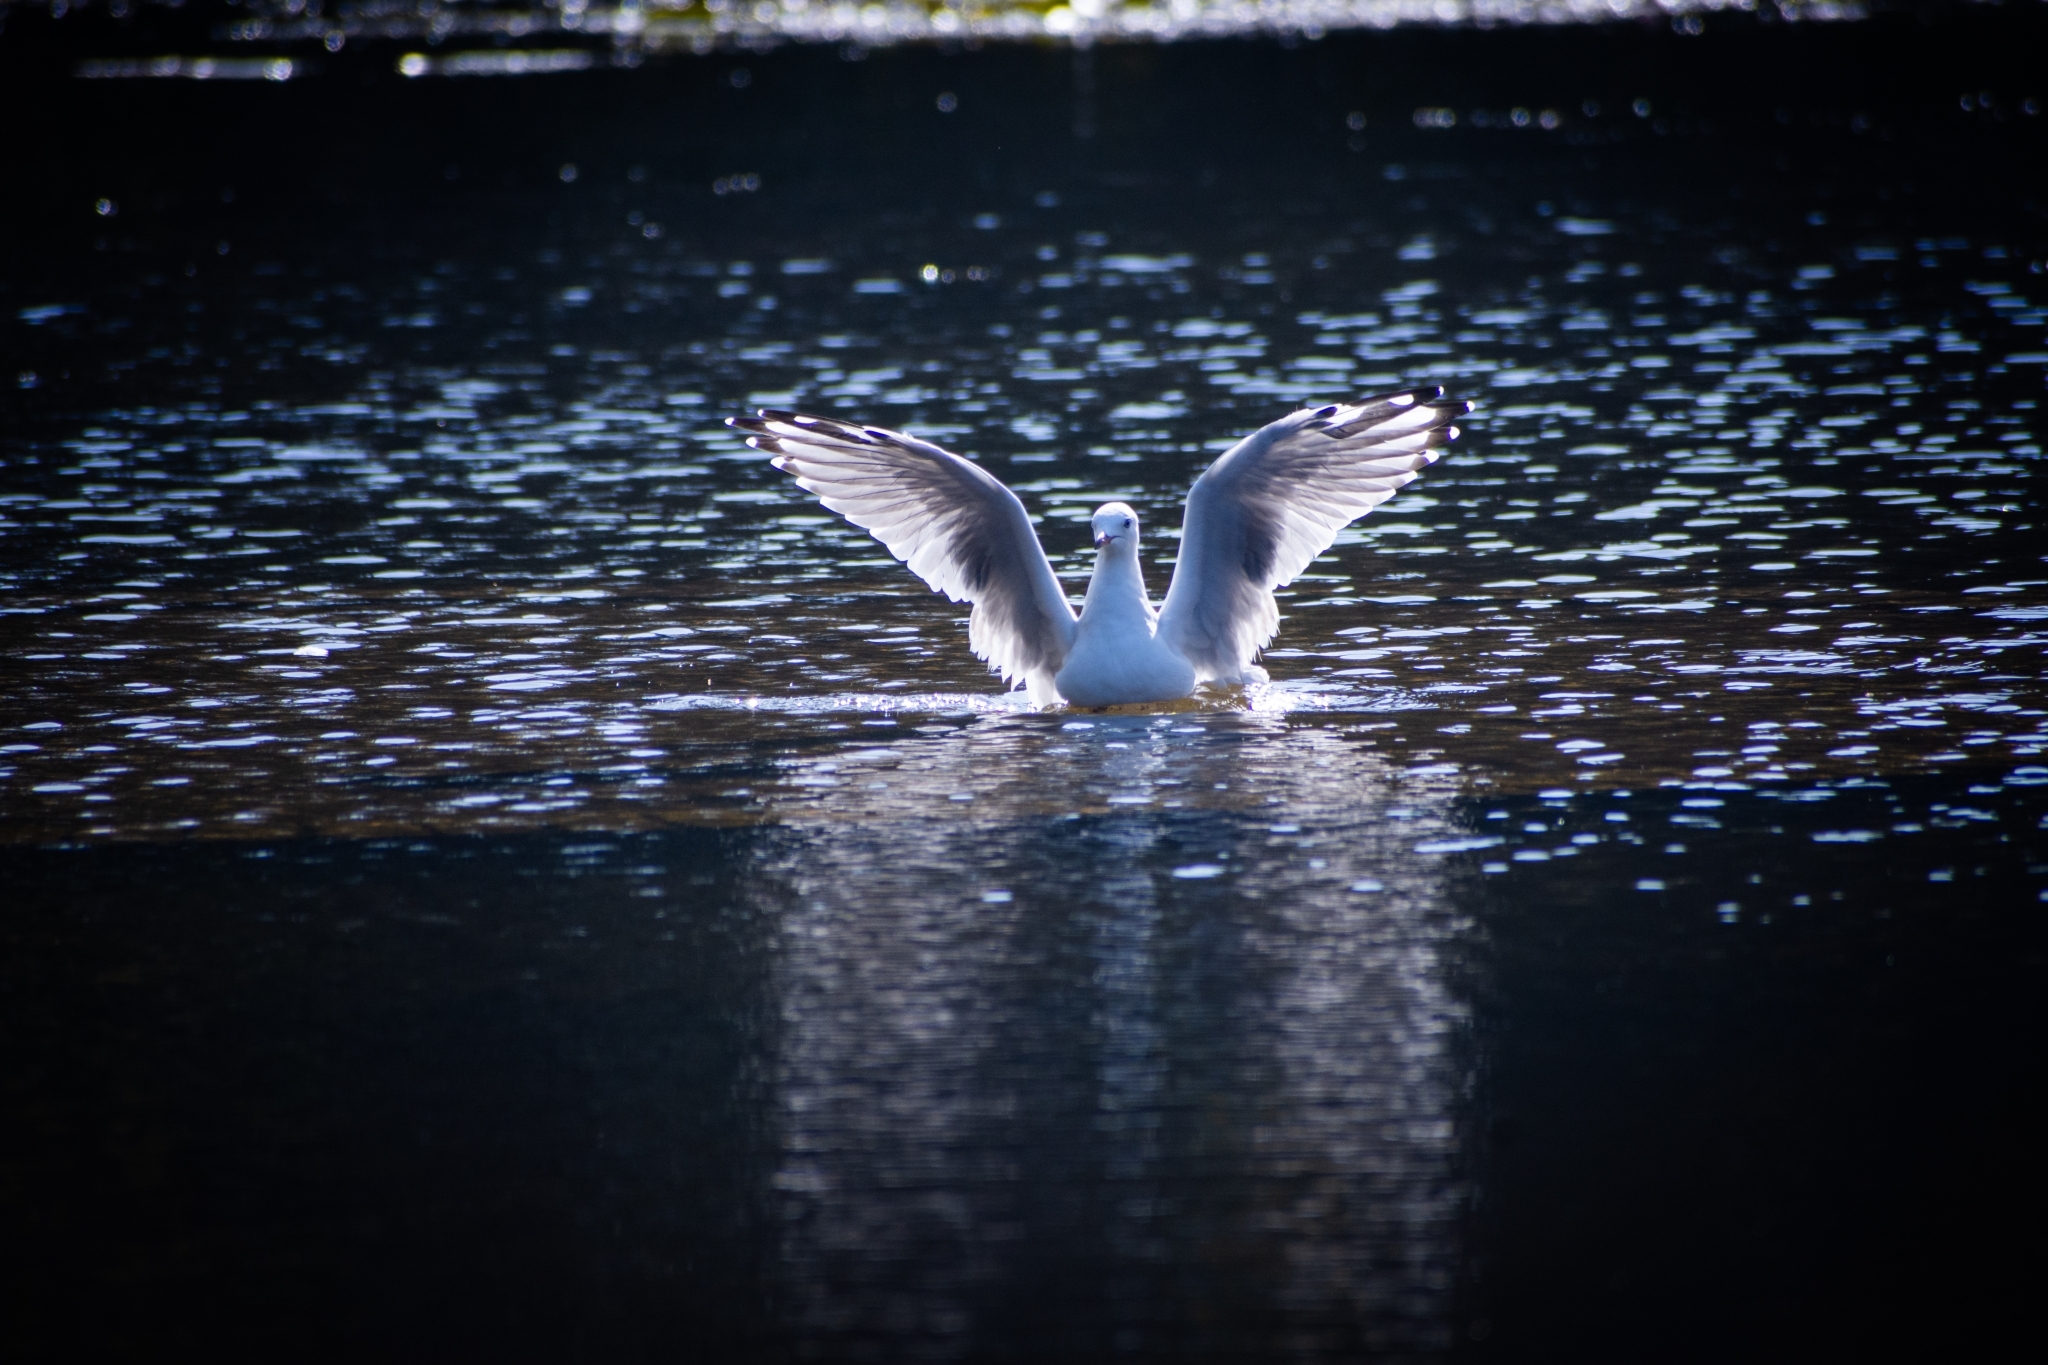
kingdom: Animalia
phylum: Chordata
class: Aves
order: Charadriiformes
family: Laridae
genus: Chroicocephalus
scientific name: Chroicocephalus novaehollandiae
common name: Silver gull
